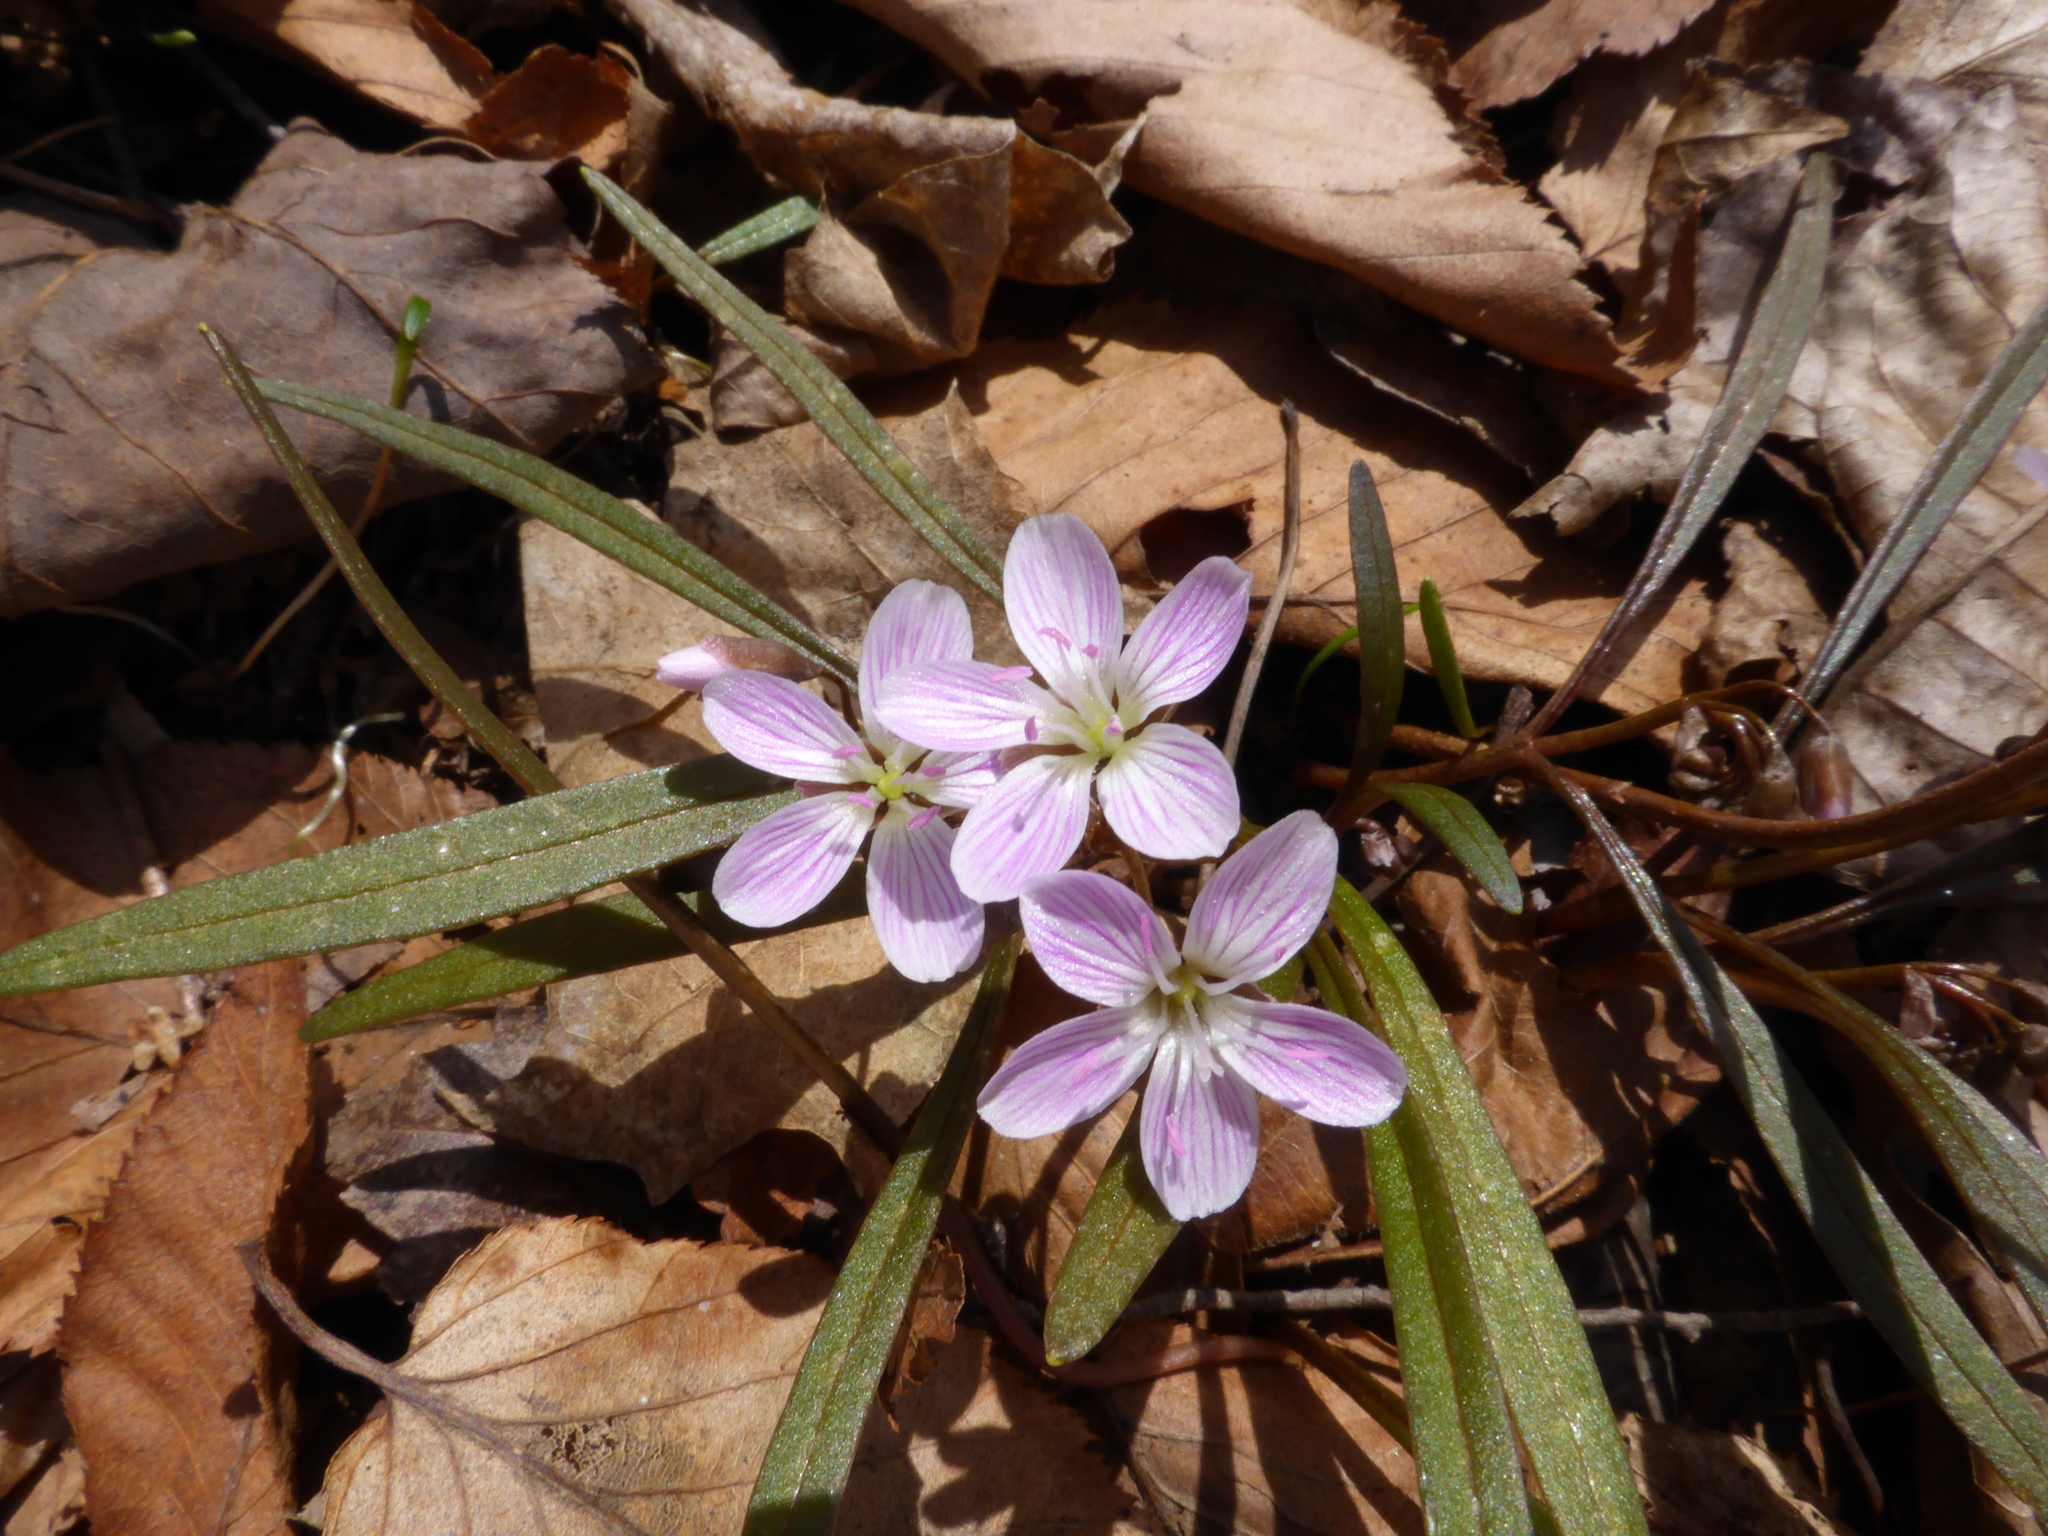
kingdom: Plantae
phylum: Tracheophyta
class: Magnoliopsida
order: Caryophyllales
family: Montiaceae
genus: Claytonia
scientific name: Claytonia virginica
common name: Virginia springbeauty
